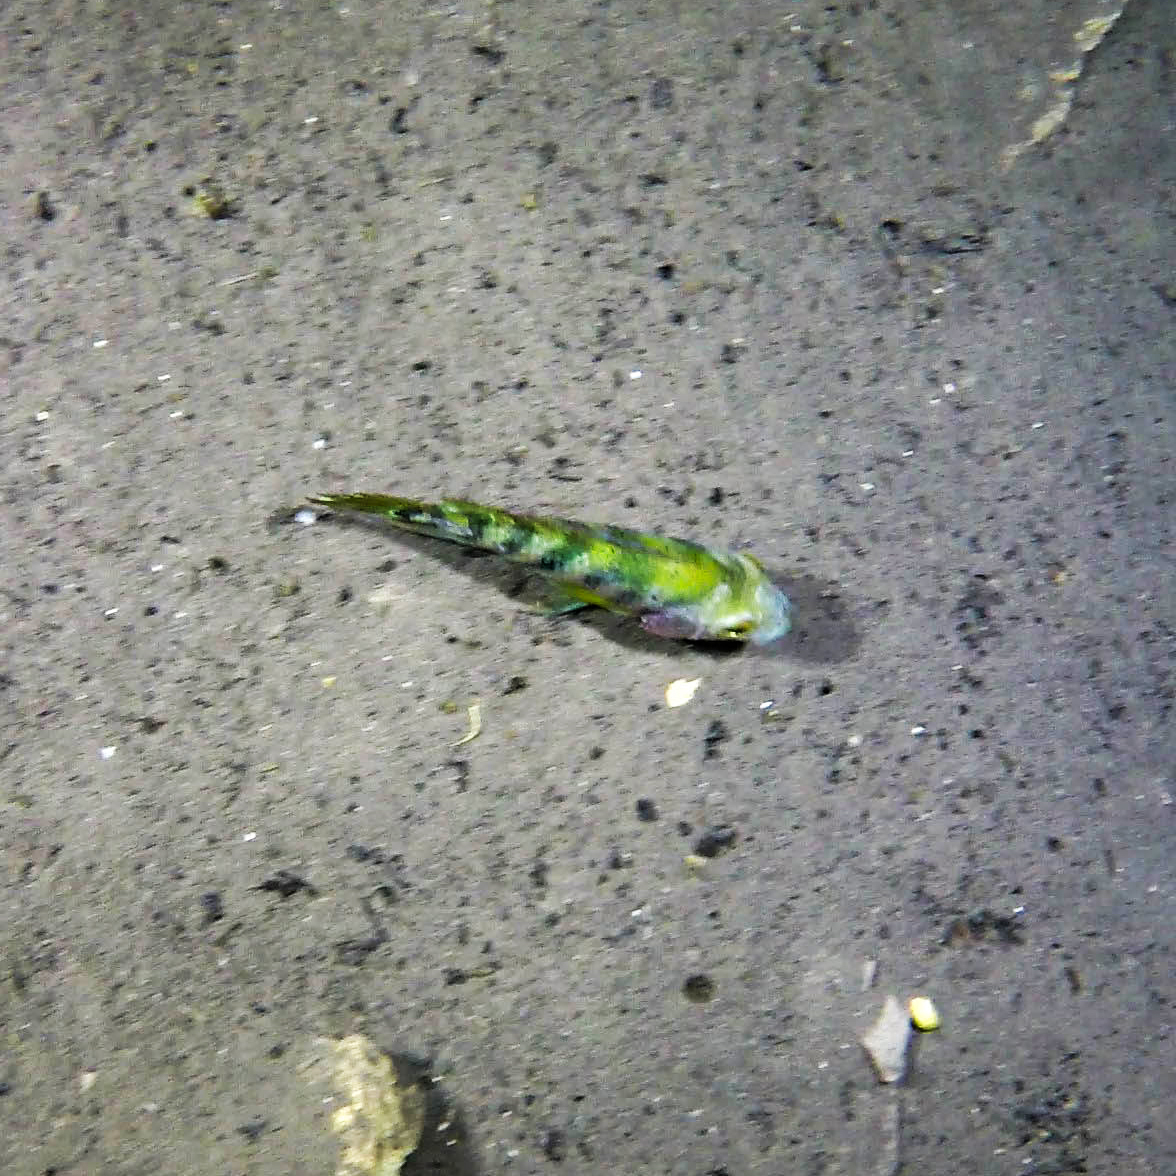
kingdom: Animalia
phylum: Chordata
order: Perciformes
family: Cichlidae
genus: Mayaheros
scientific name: Mayaheros urophthalmus
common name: Mayan cichlid
